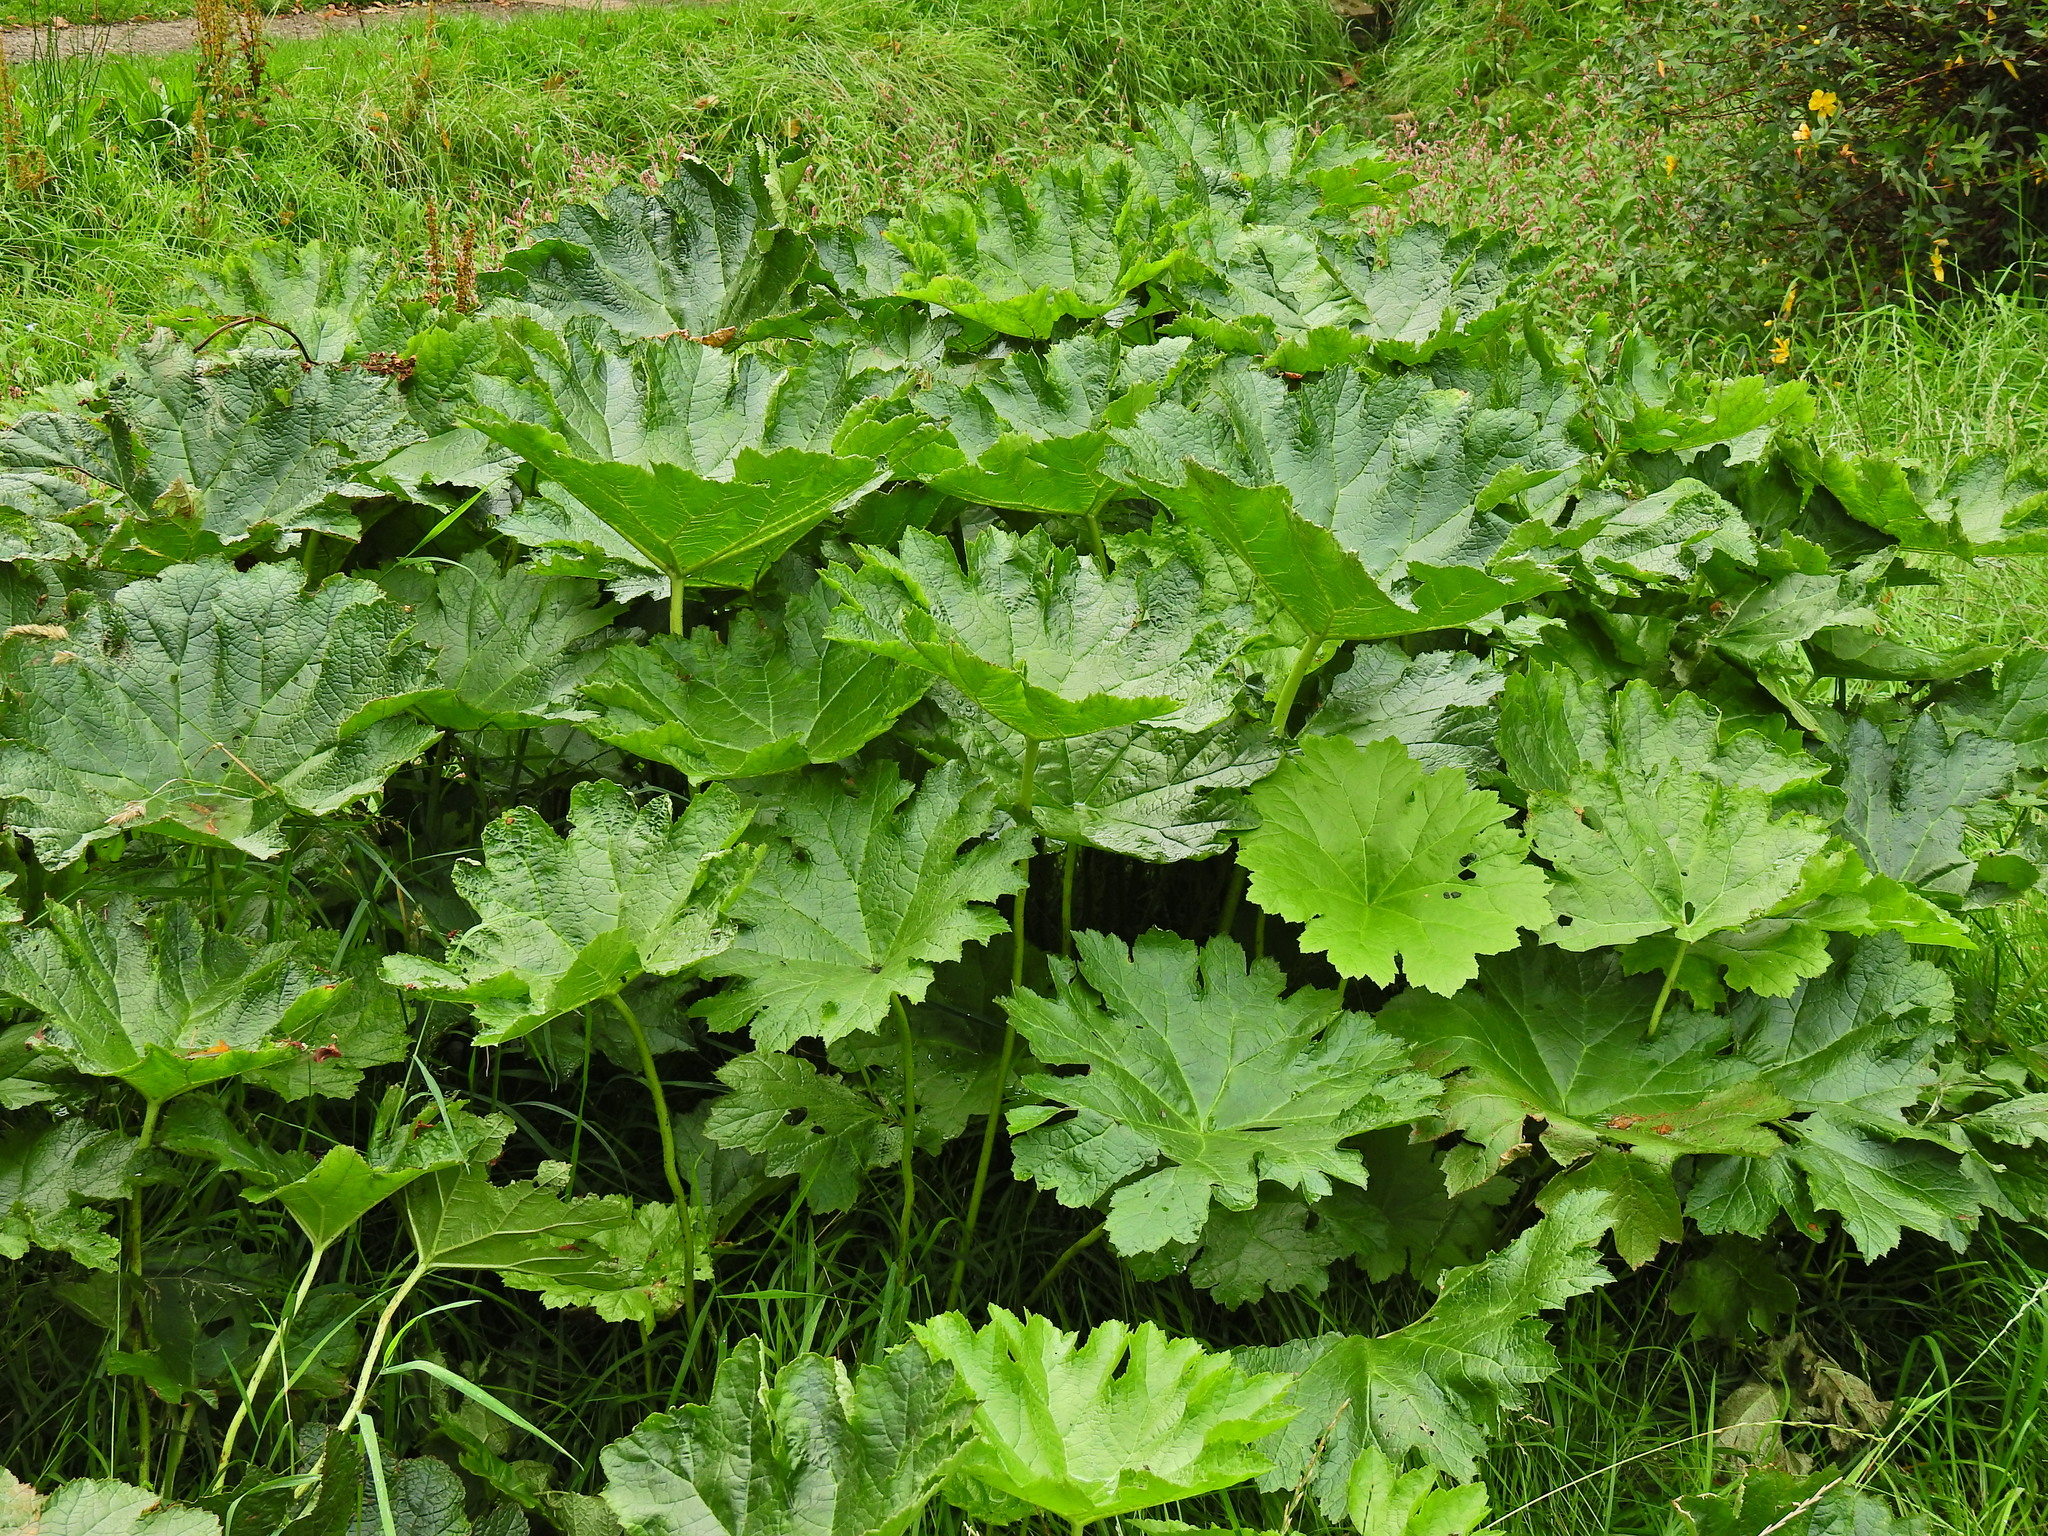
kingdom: Plantae
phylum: Tracheophyta
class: Magnoliopsida
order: Saxifragales
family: Saxifragaceae
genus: Darmera
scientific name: Darmera peltata
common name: Indian-rhubarb
